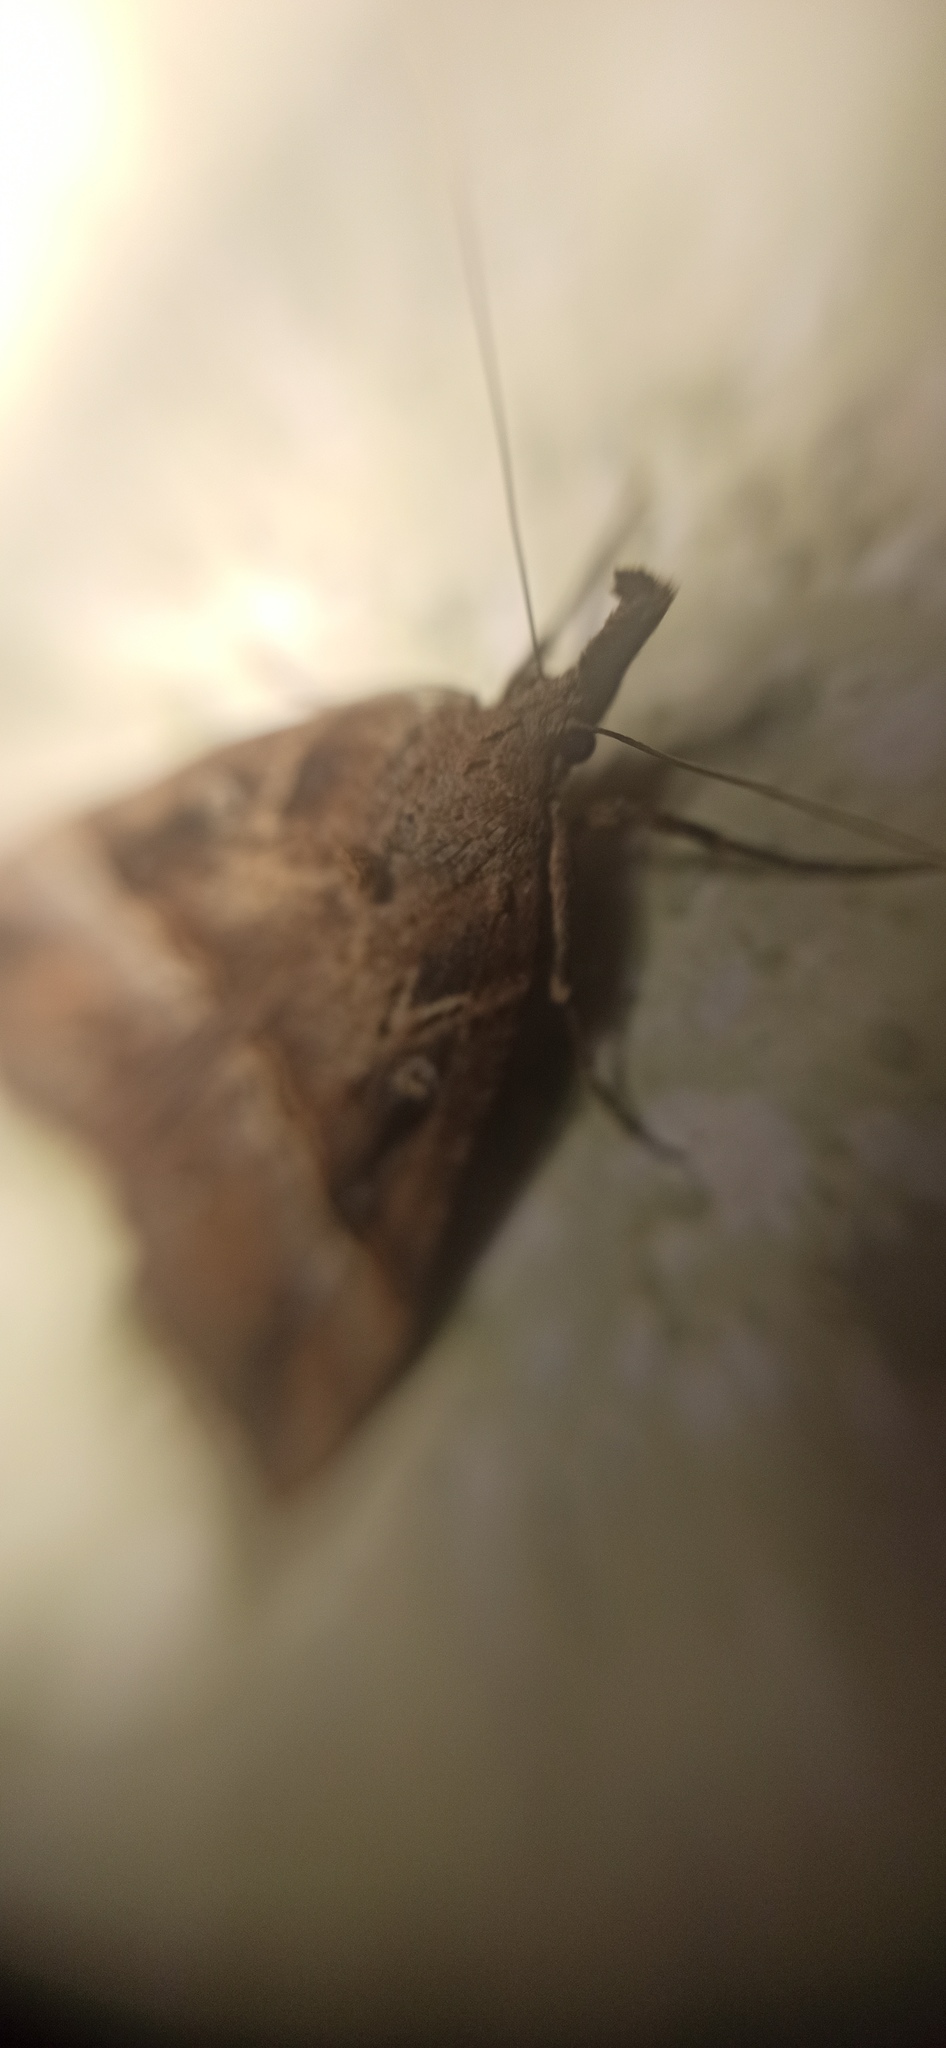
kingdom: Animalia
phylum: Arthropoda
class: Insecta
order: Lepidoptera
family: Erebidae
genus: Hypena
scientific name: Hypena rostralis
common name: Buttoned snout
